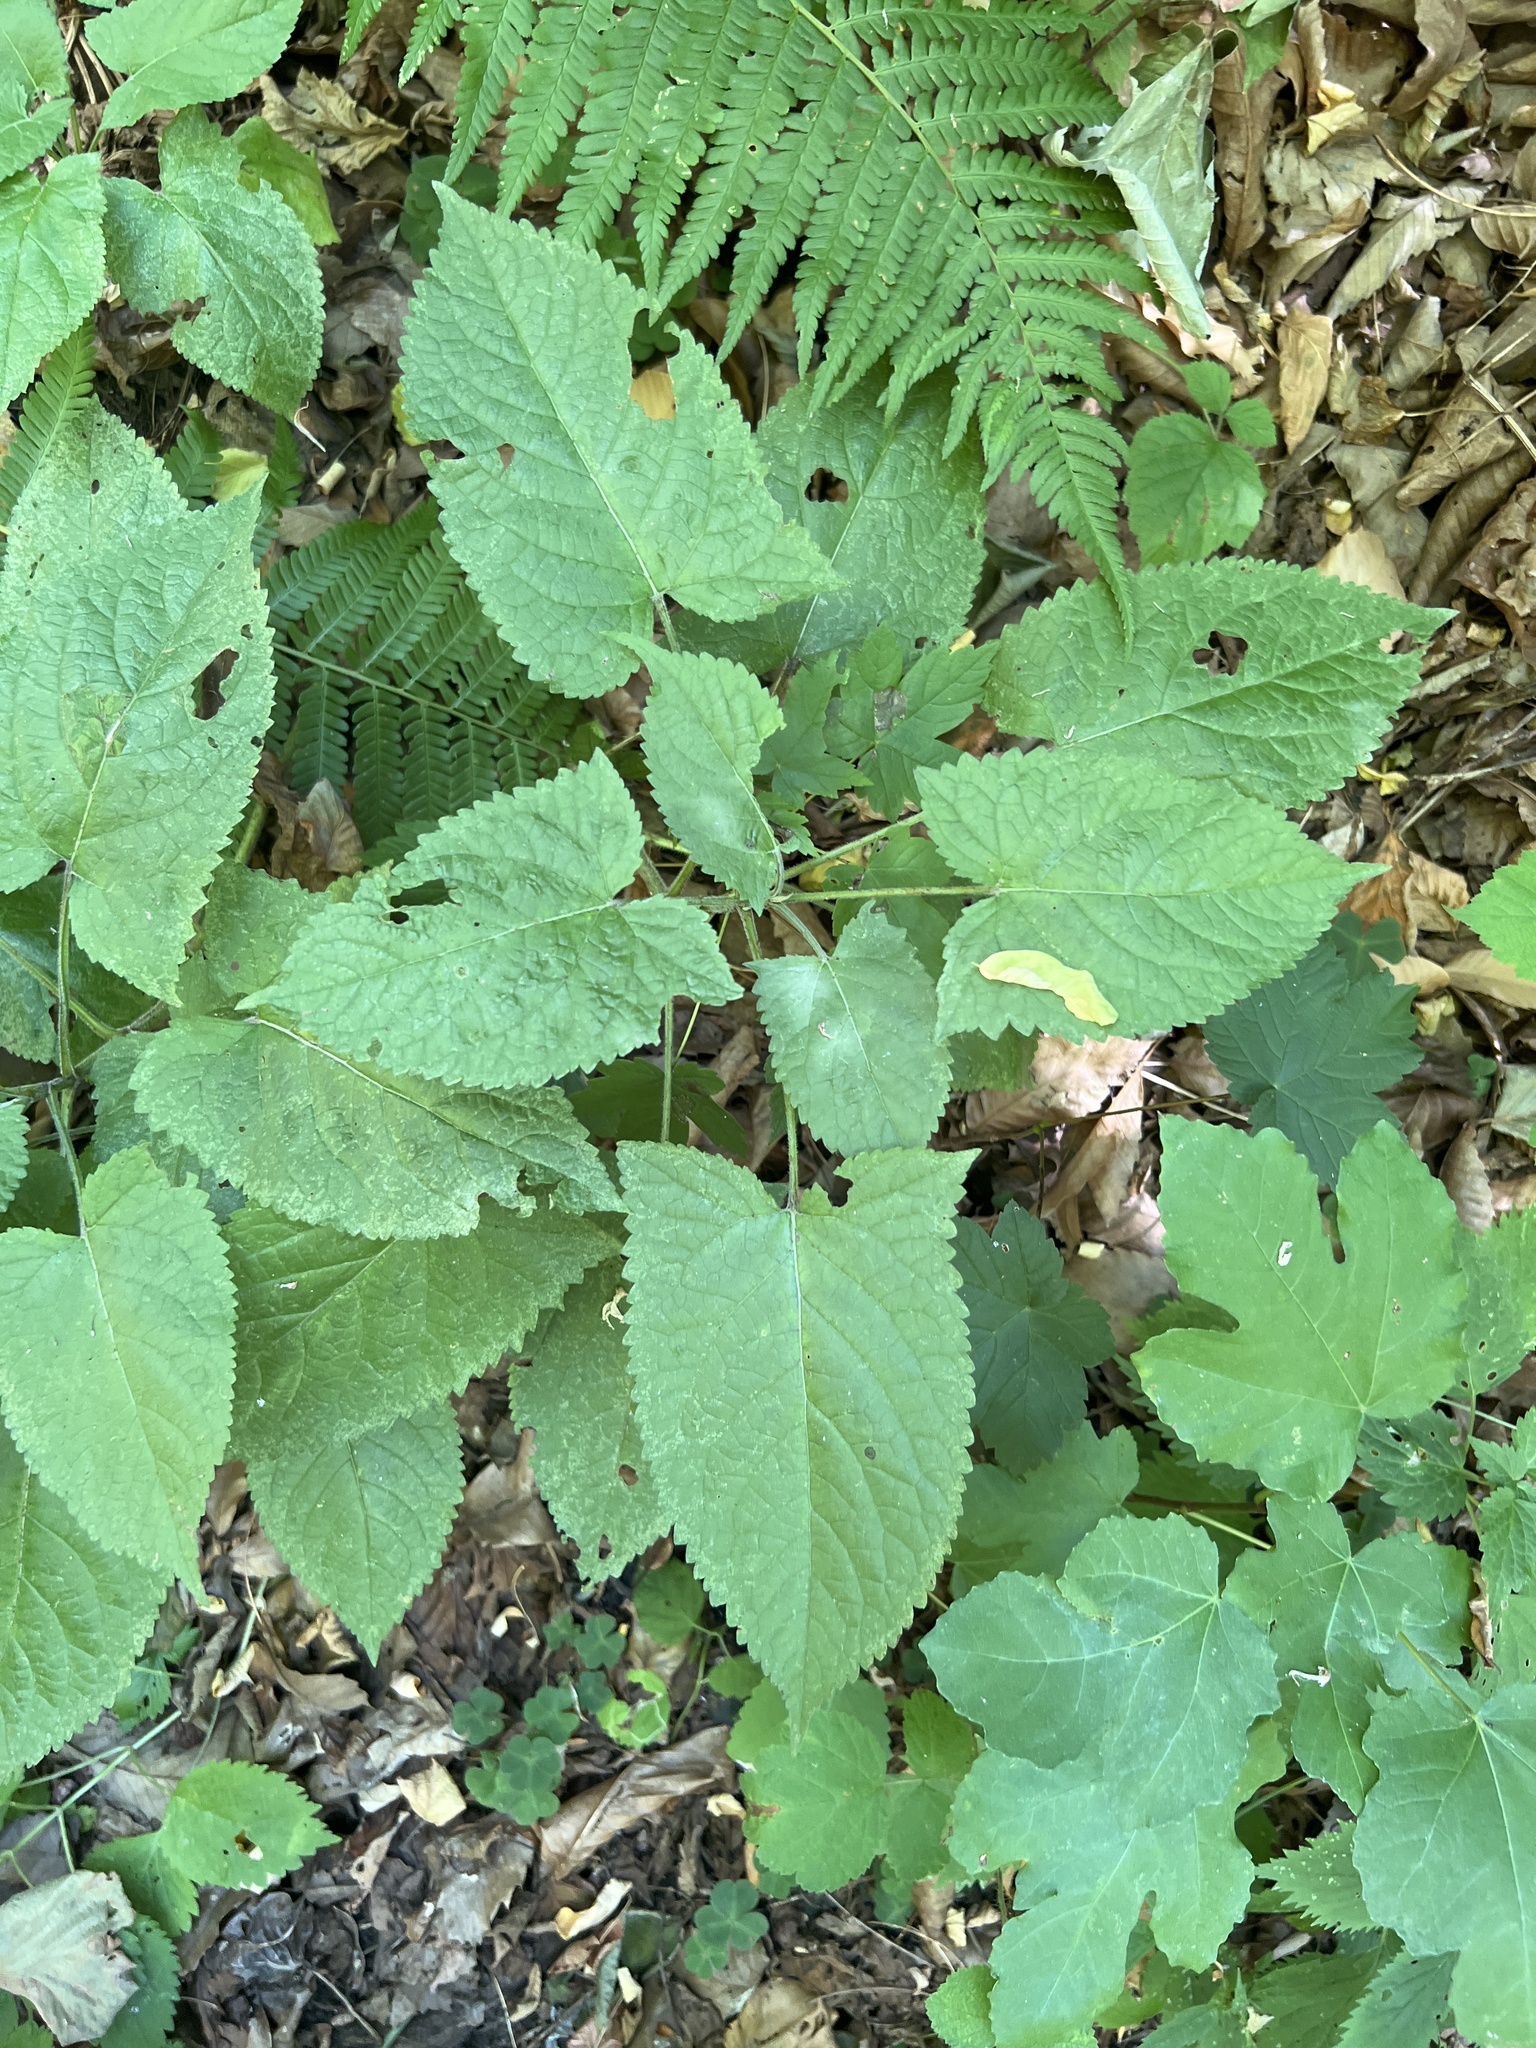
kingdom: Plantae
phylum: Tracheophyta
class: Magnoliopsida
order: Lamiales
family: Lamiaceae
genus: Salvia
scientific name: Salvia glutinosa
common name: Sticky clary
